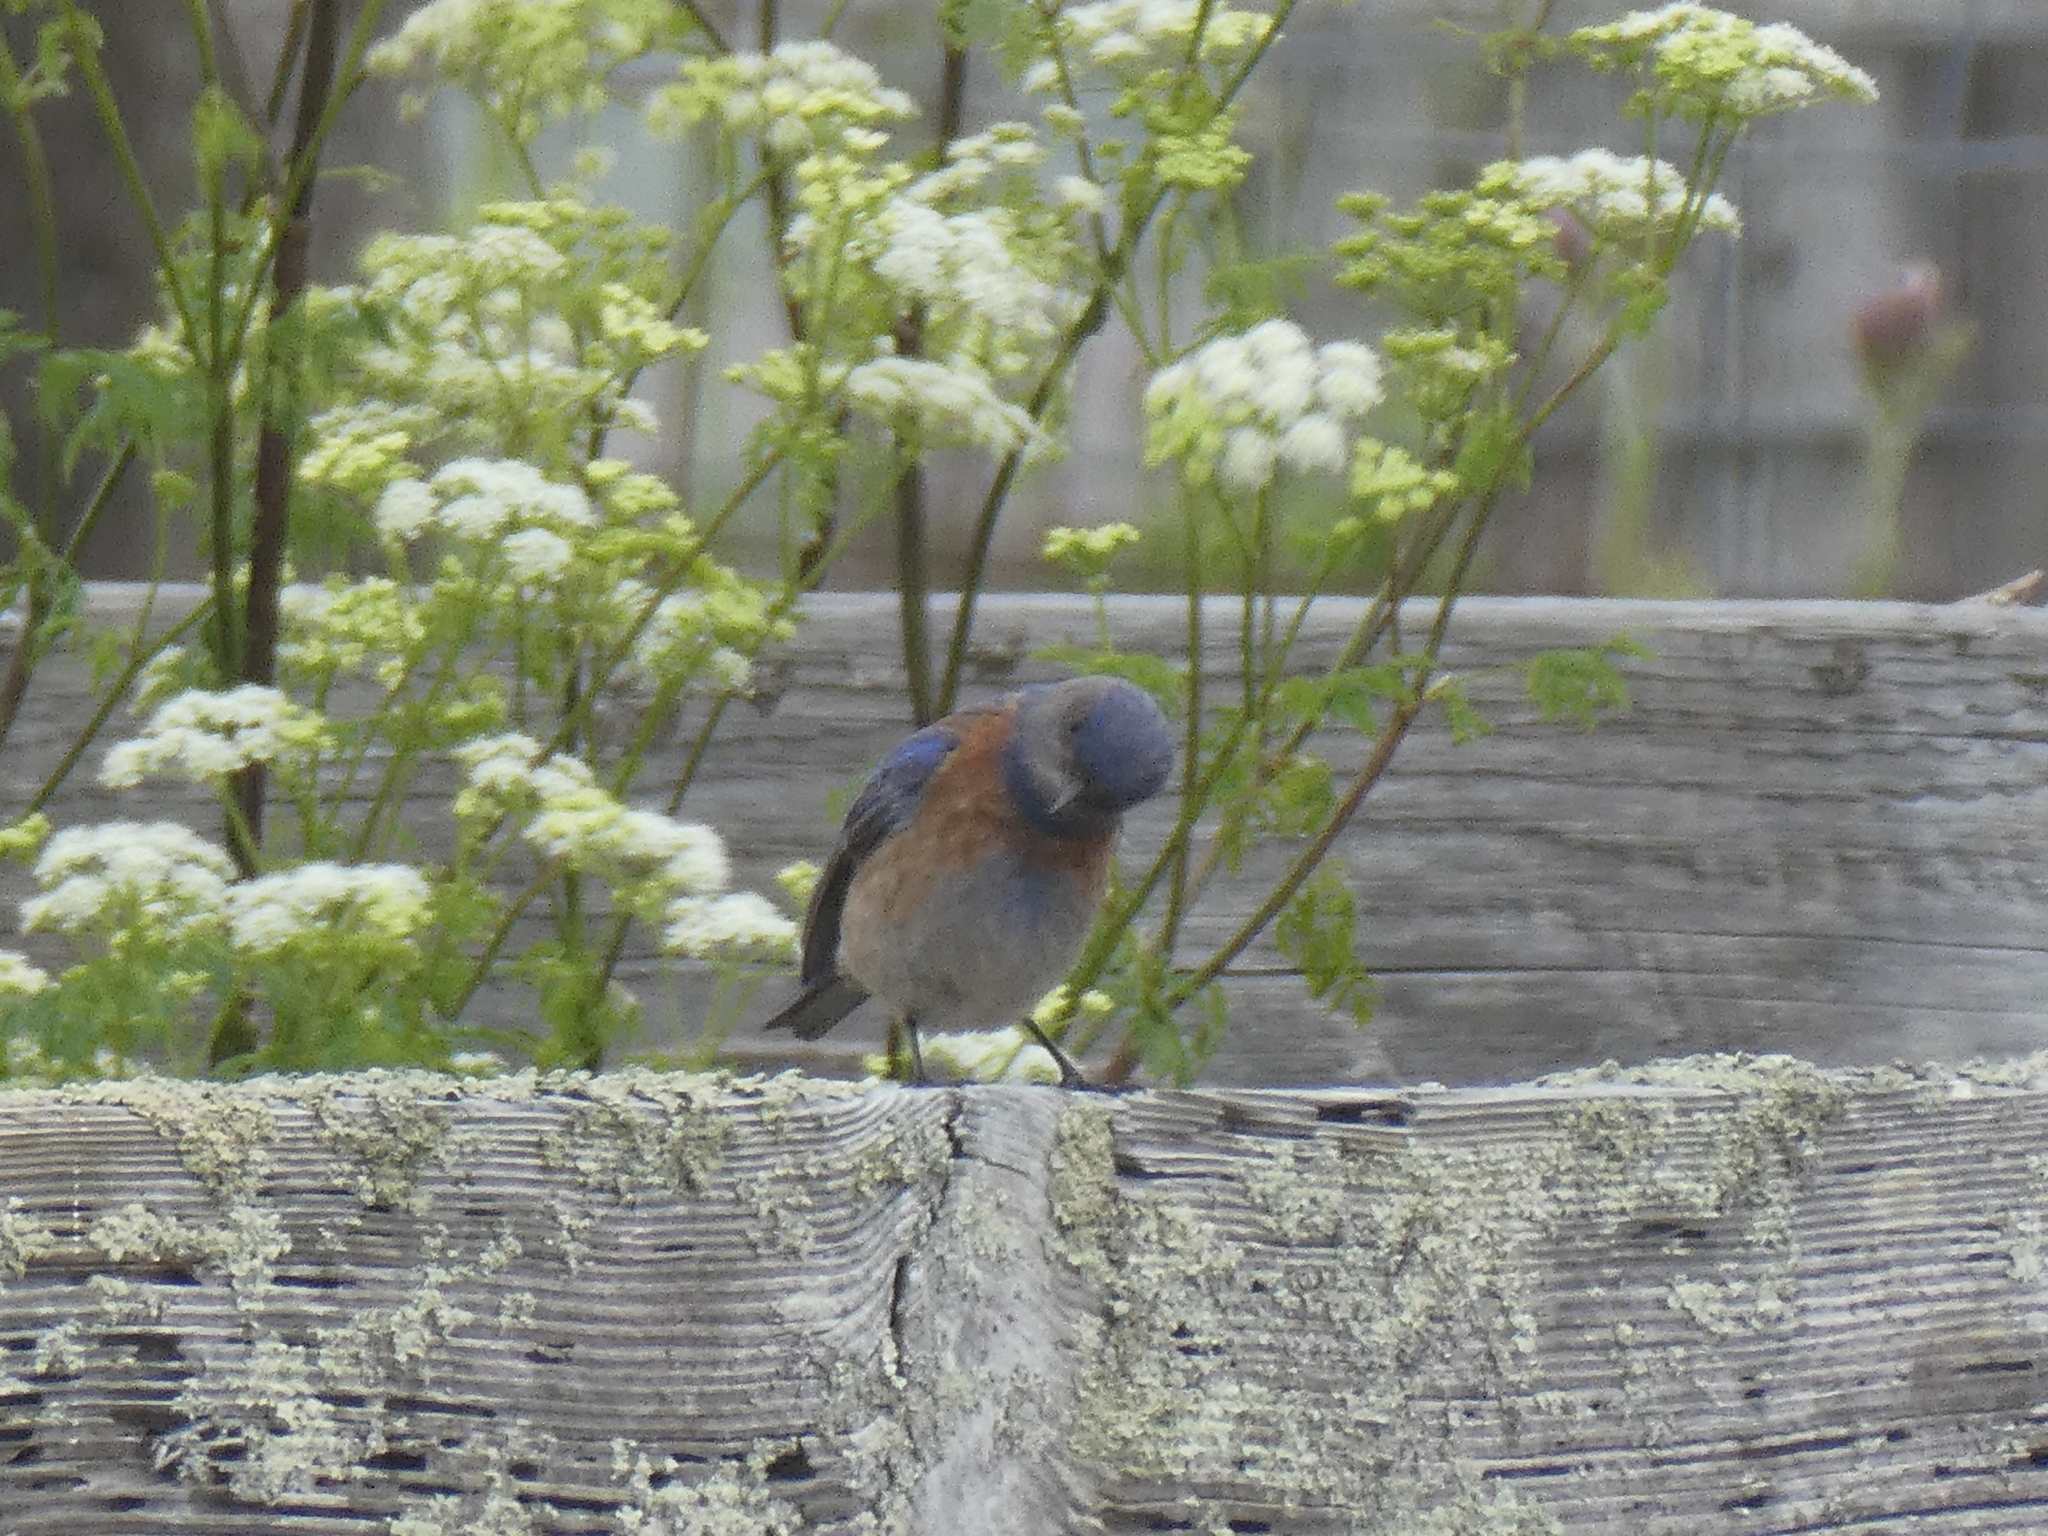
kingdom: Animalia
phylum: Chordata
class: Aves
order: Passeriformes
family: Turdidae
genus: Sialia
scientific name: Sialia mexicana
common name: Western bluebird
